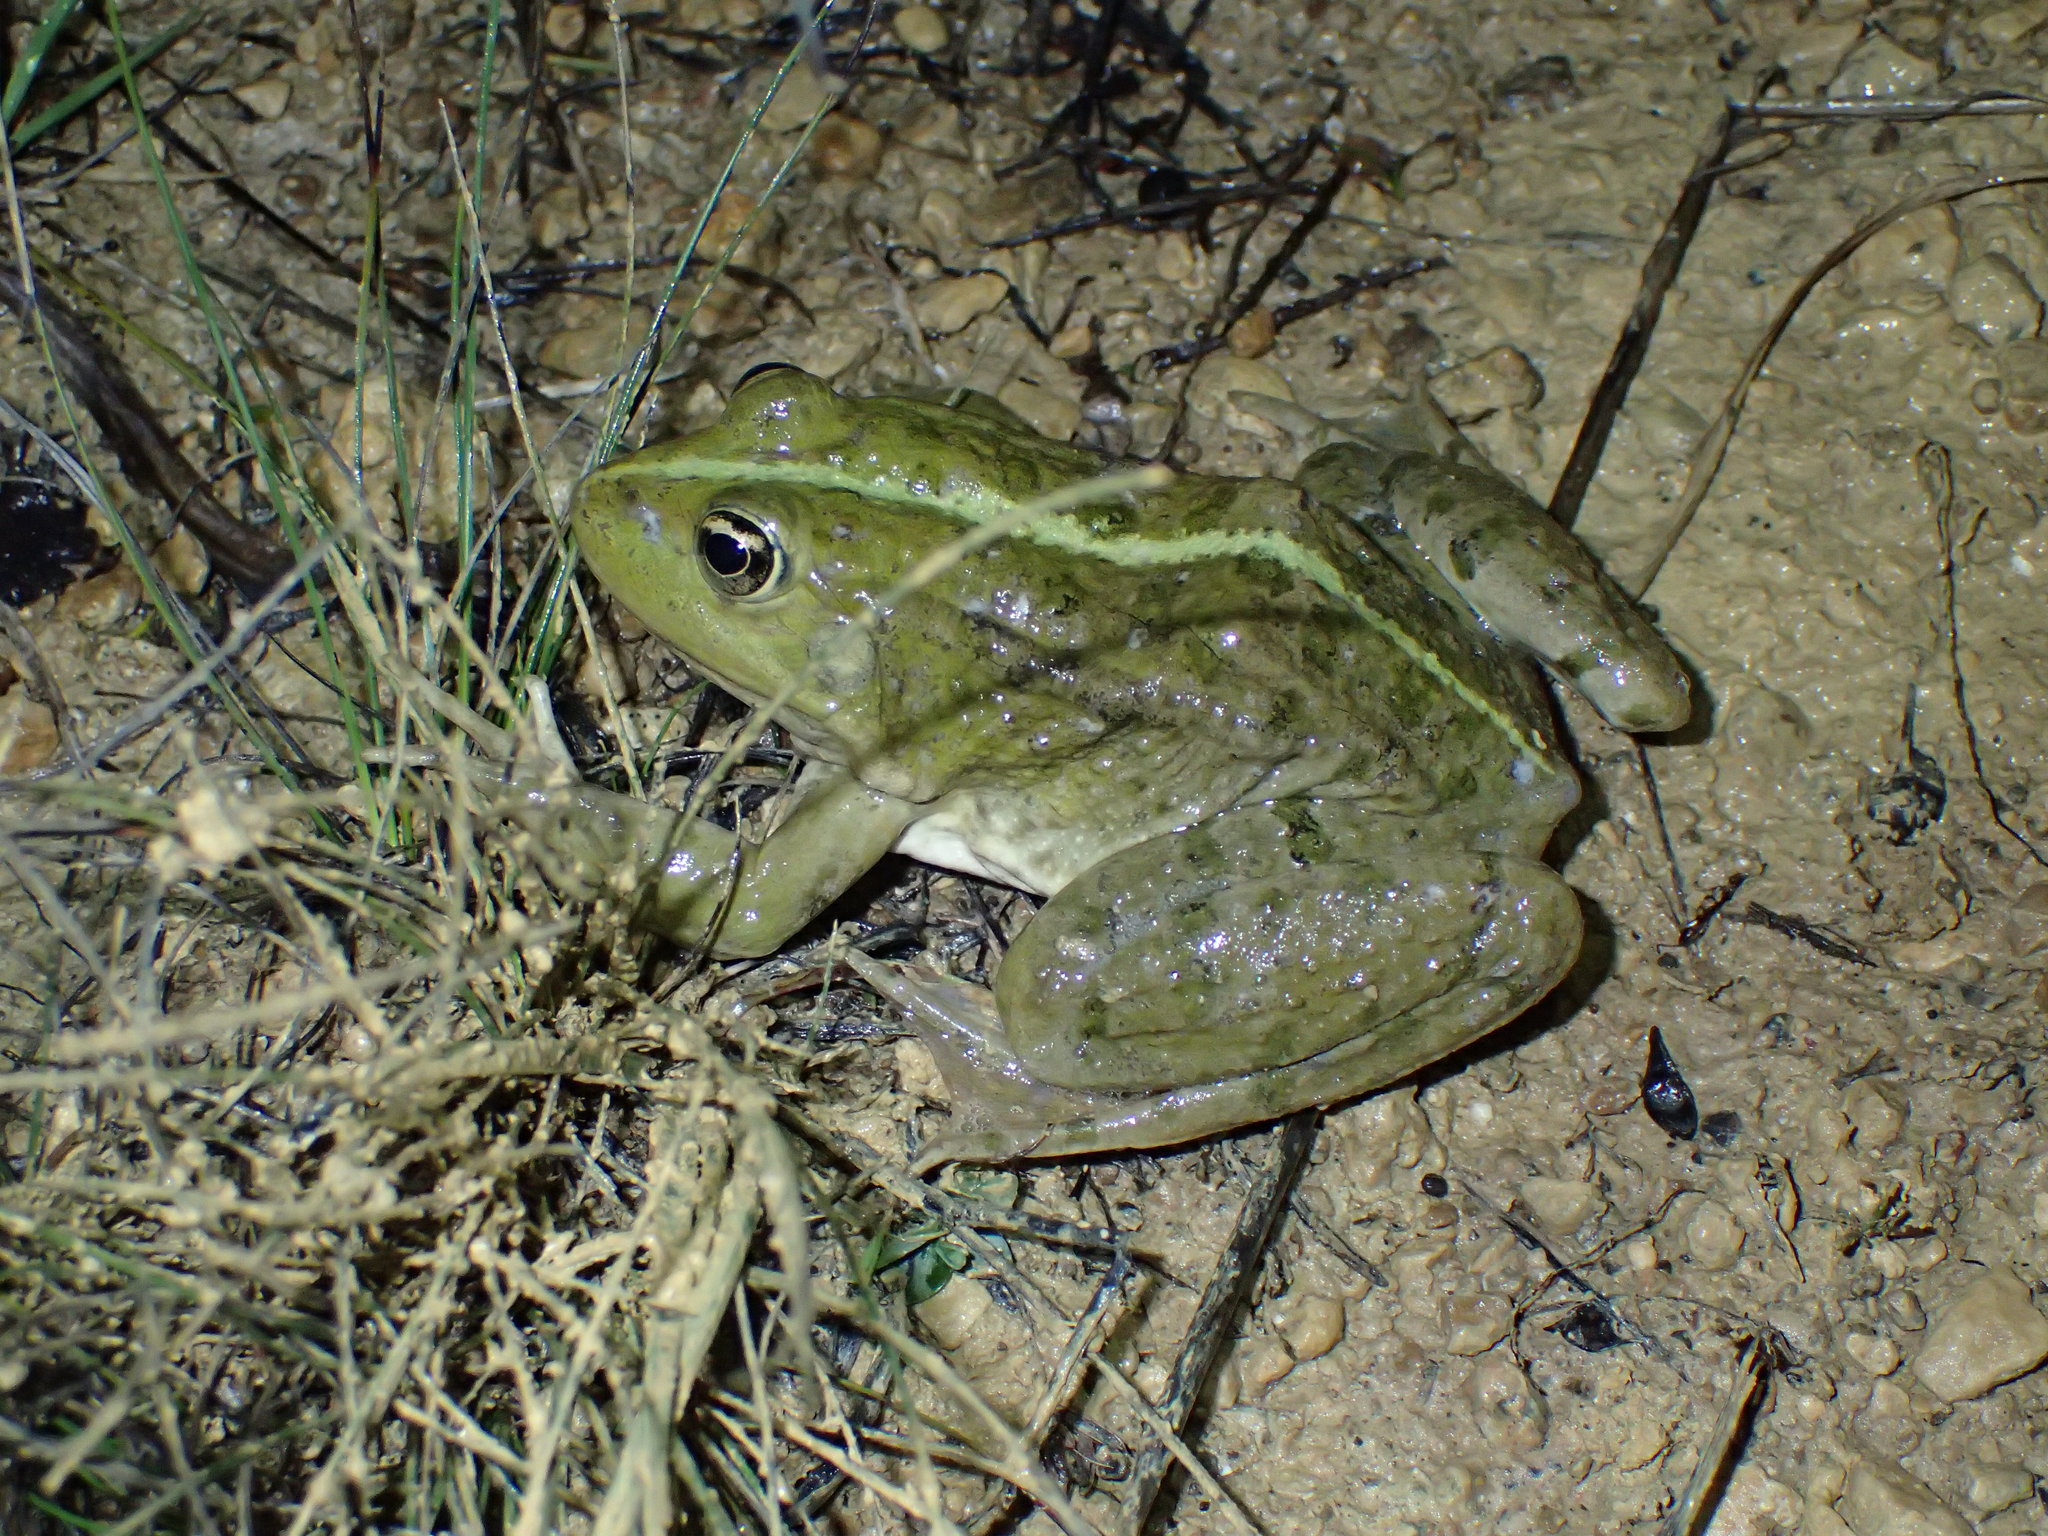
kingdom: Animalia
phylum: Chordata
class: Amphibia
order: Anura
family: Ranidae
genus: Pelophylax
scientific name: Pelophylax
